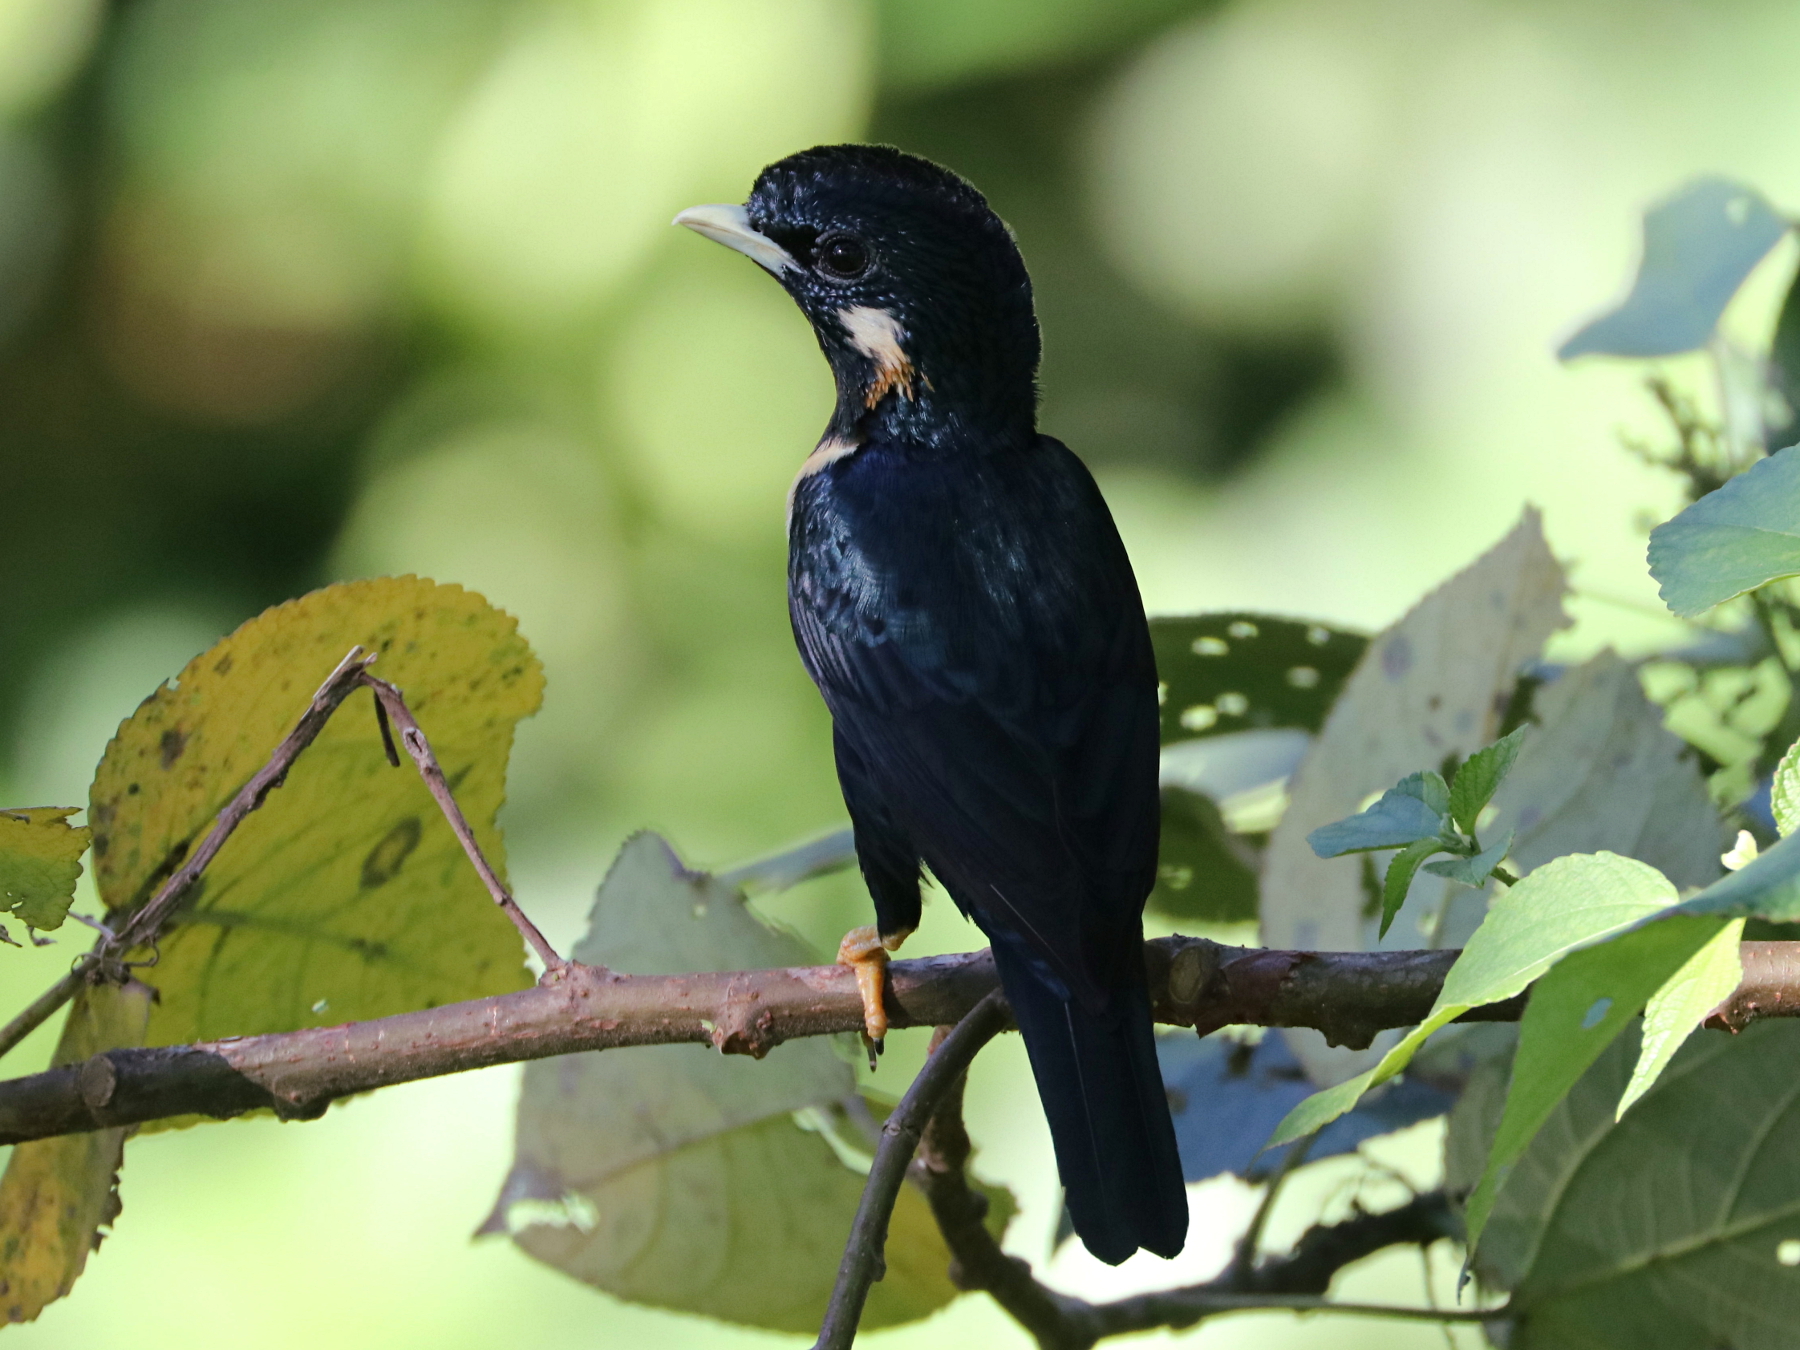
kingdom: Animalia
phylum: Chordata
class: Aves
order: Passeriformes
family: Sturnidae
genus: Basilornis
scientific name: Basilornis celebensis
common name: Sulawesi myna
